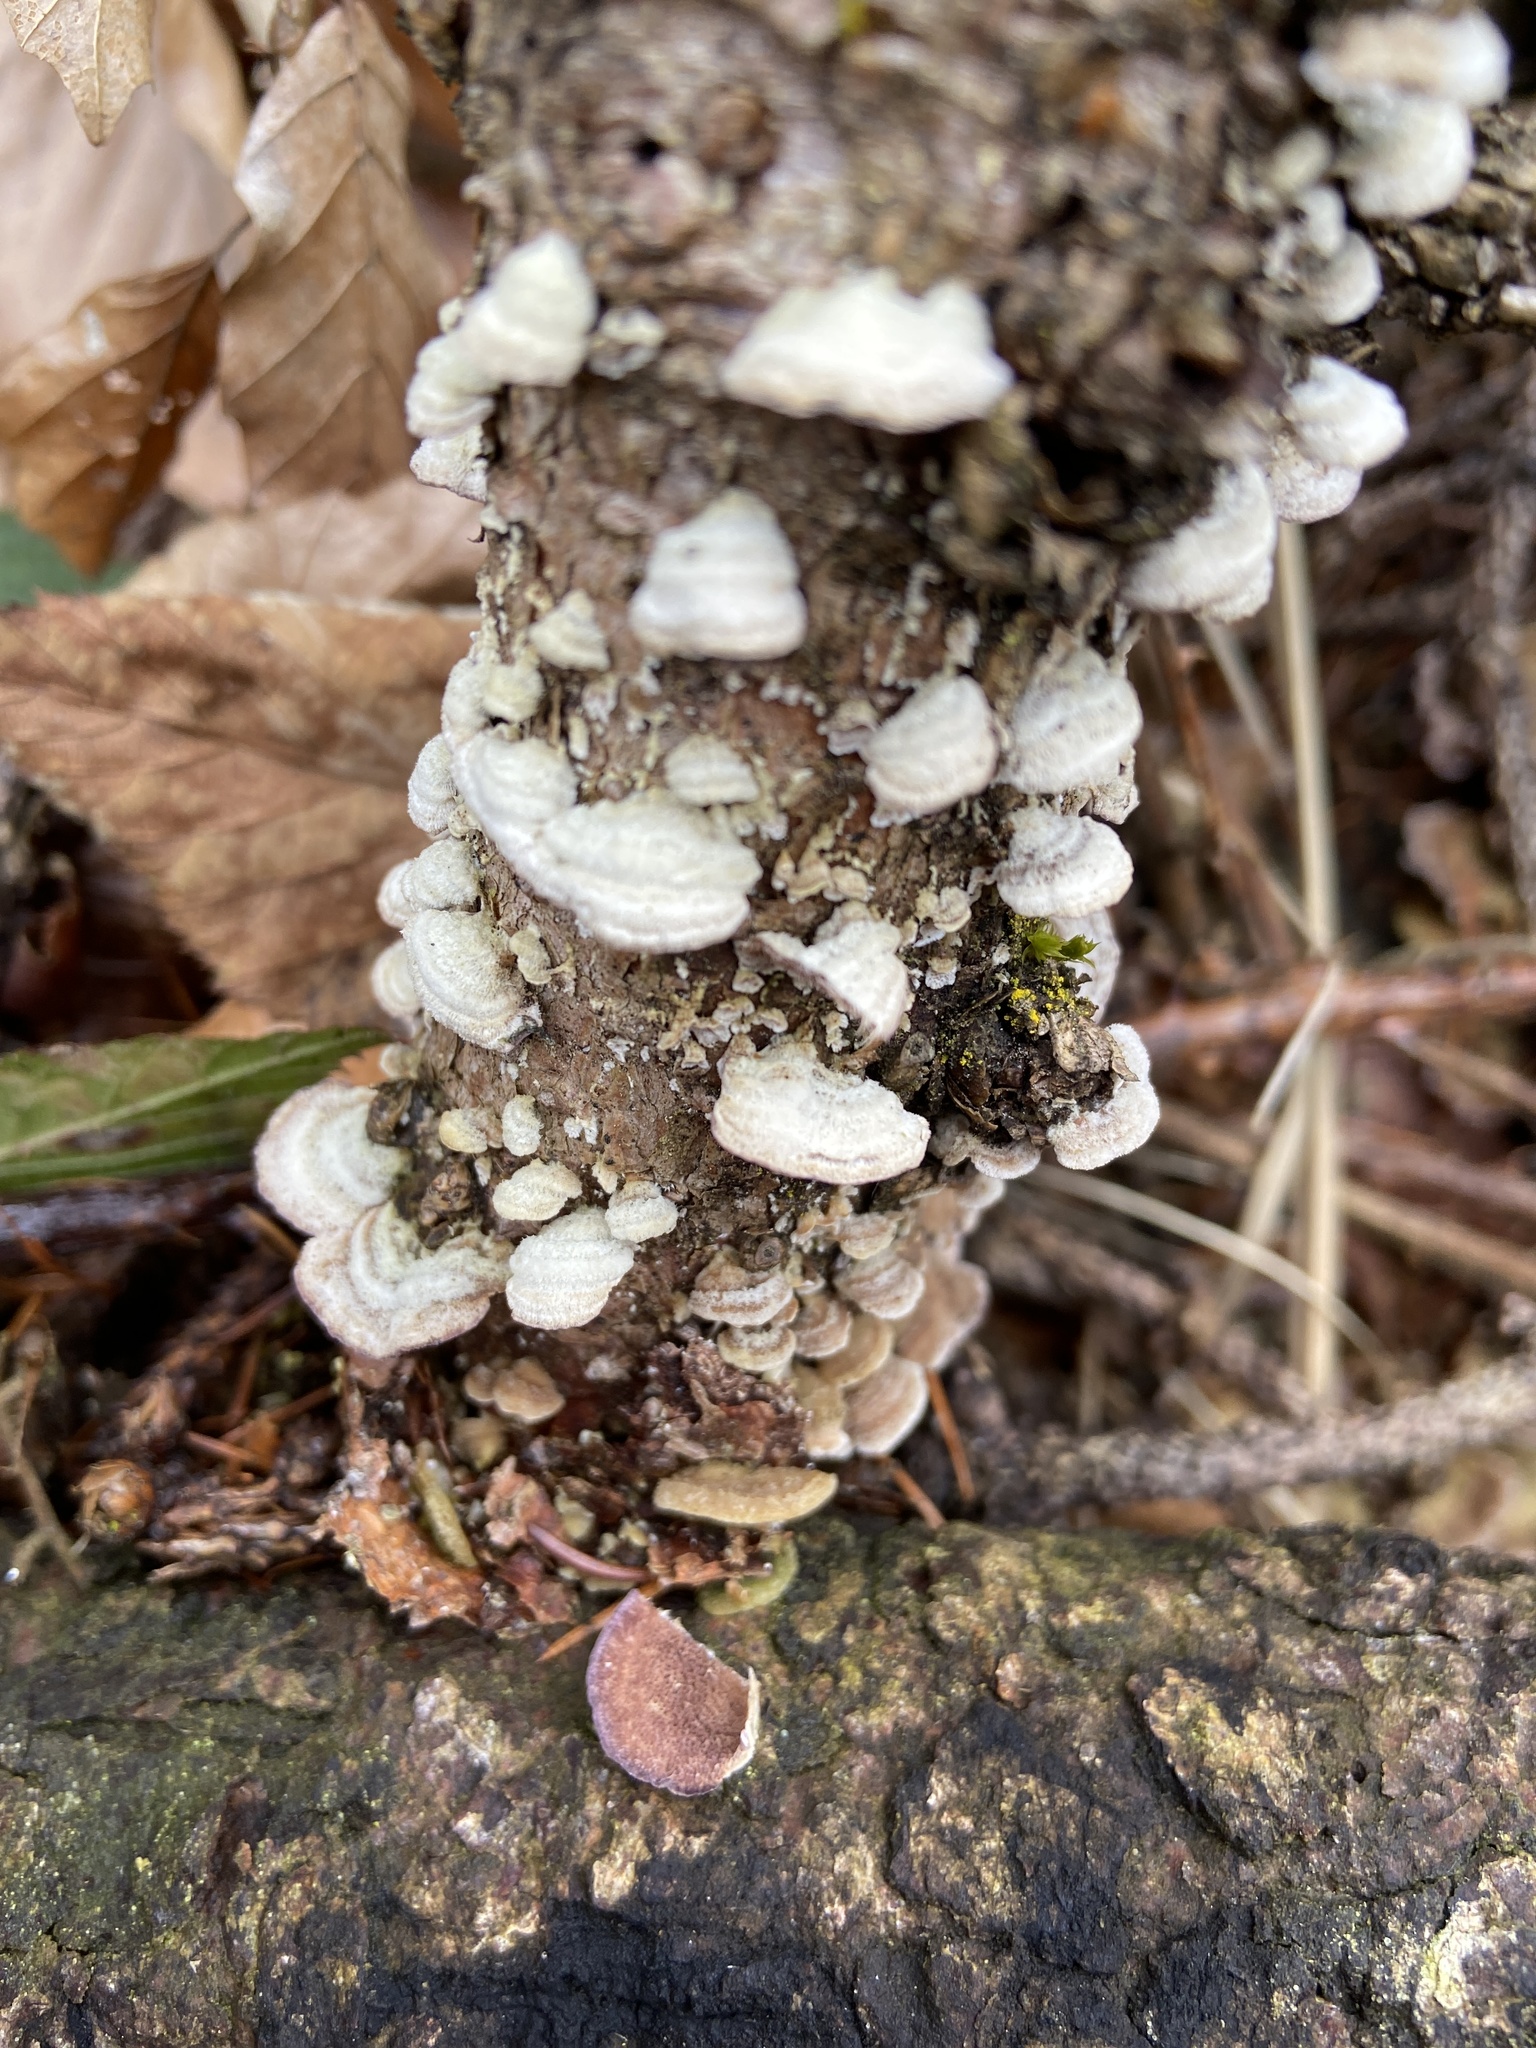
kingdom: Fungi
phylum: Basidiomycota
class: Agaricomycetes
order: Hymenochaetales
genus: Trichaptum
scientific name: Trichaptum abietinum
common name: Purplepore bracket
